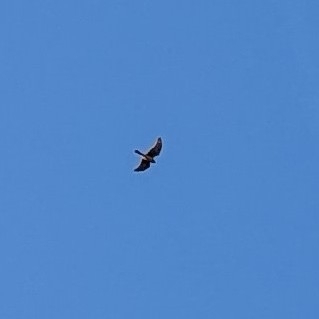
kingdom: Animalia
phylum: Chordata
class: Aves
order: Accipitriformes
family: Accipitridae
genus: Circus
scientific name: Circus cyaneus
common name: Hen harrier
